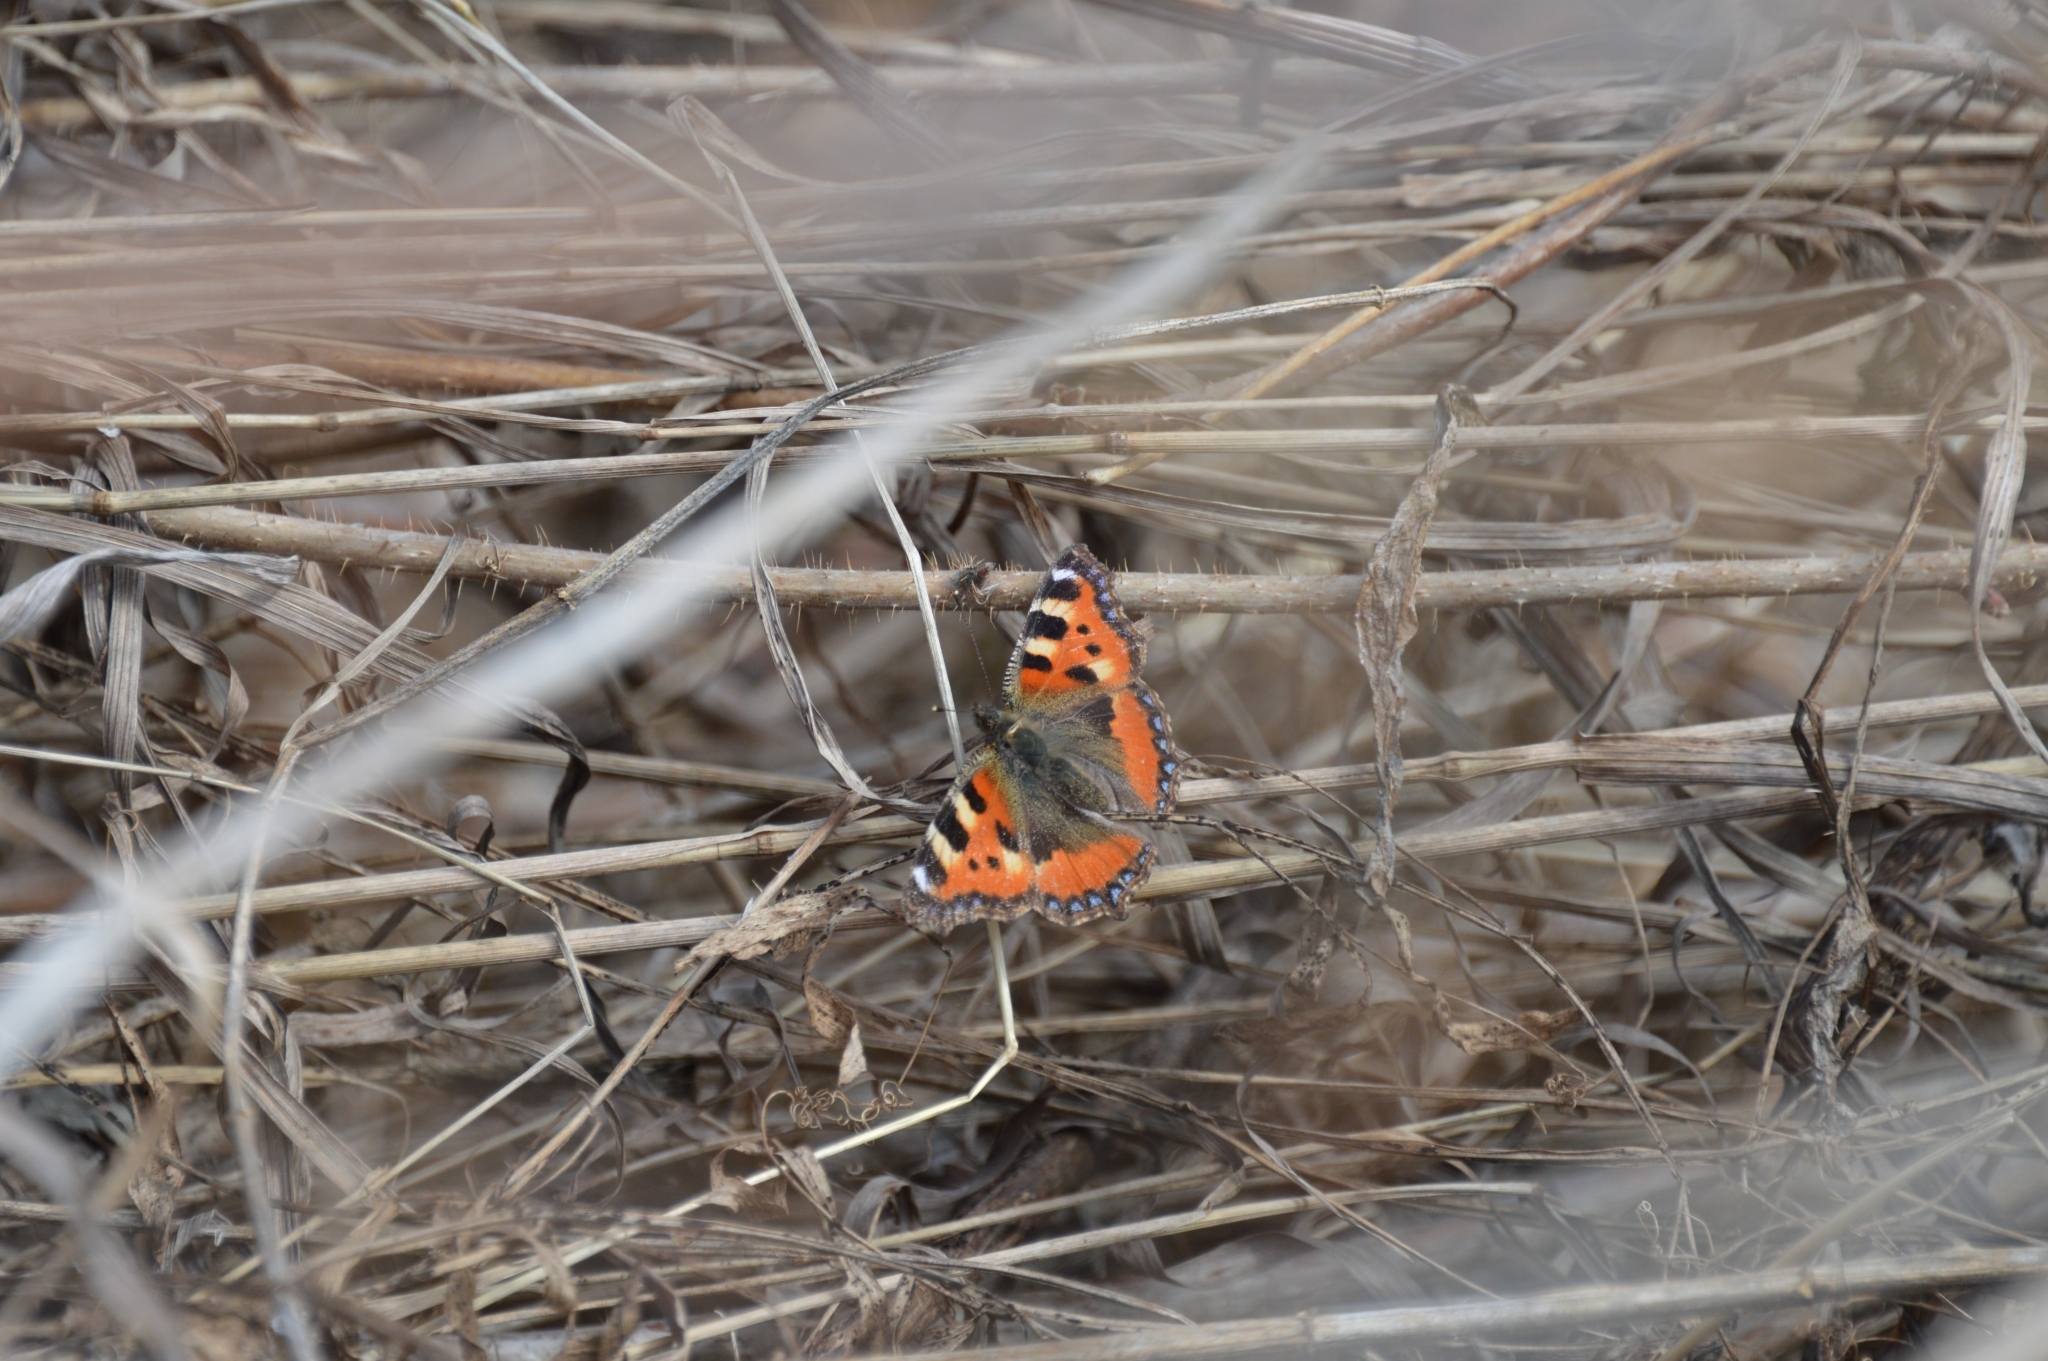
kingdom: Animalia
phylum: Arthropoda
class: Insecta
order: Lepidoptera
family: Nymphalidae
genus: Aglais
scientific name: Aglais urticae
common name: Small tortoiseshell
